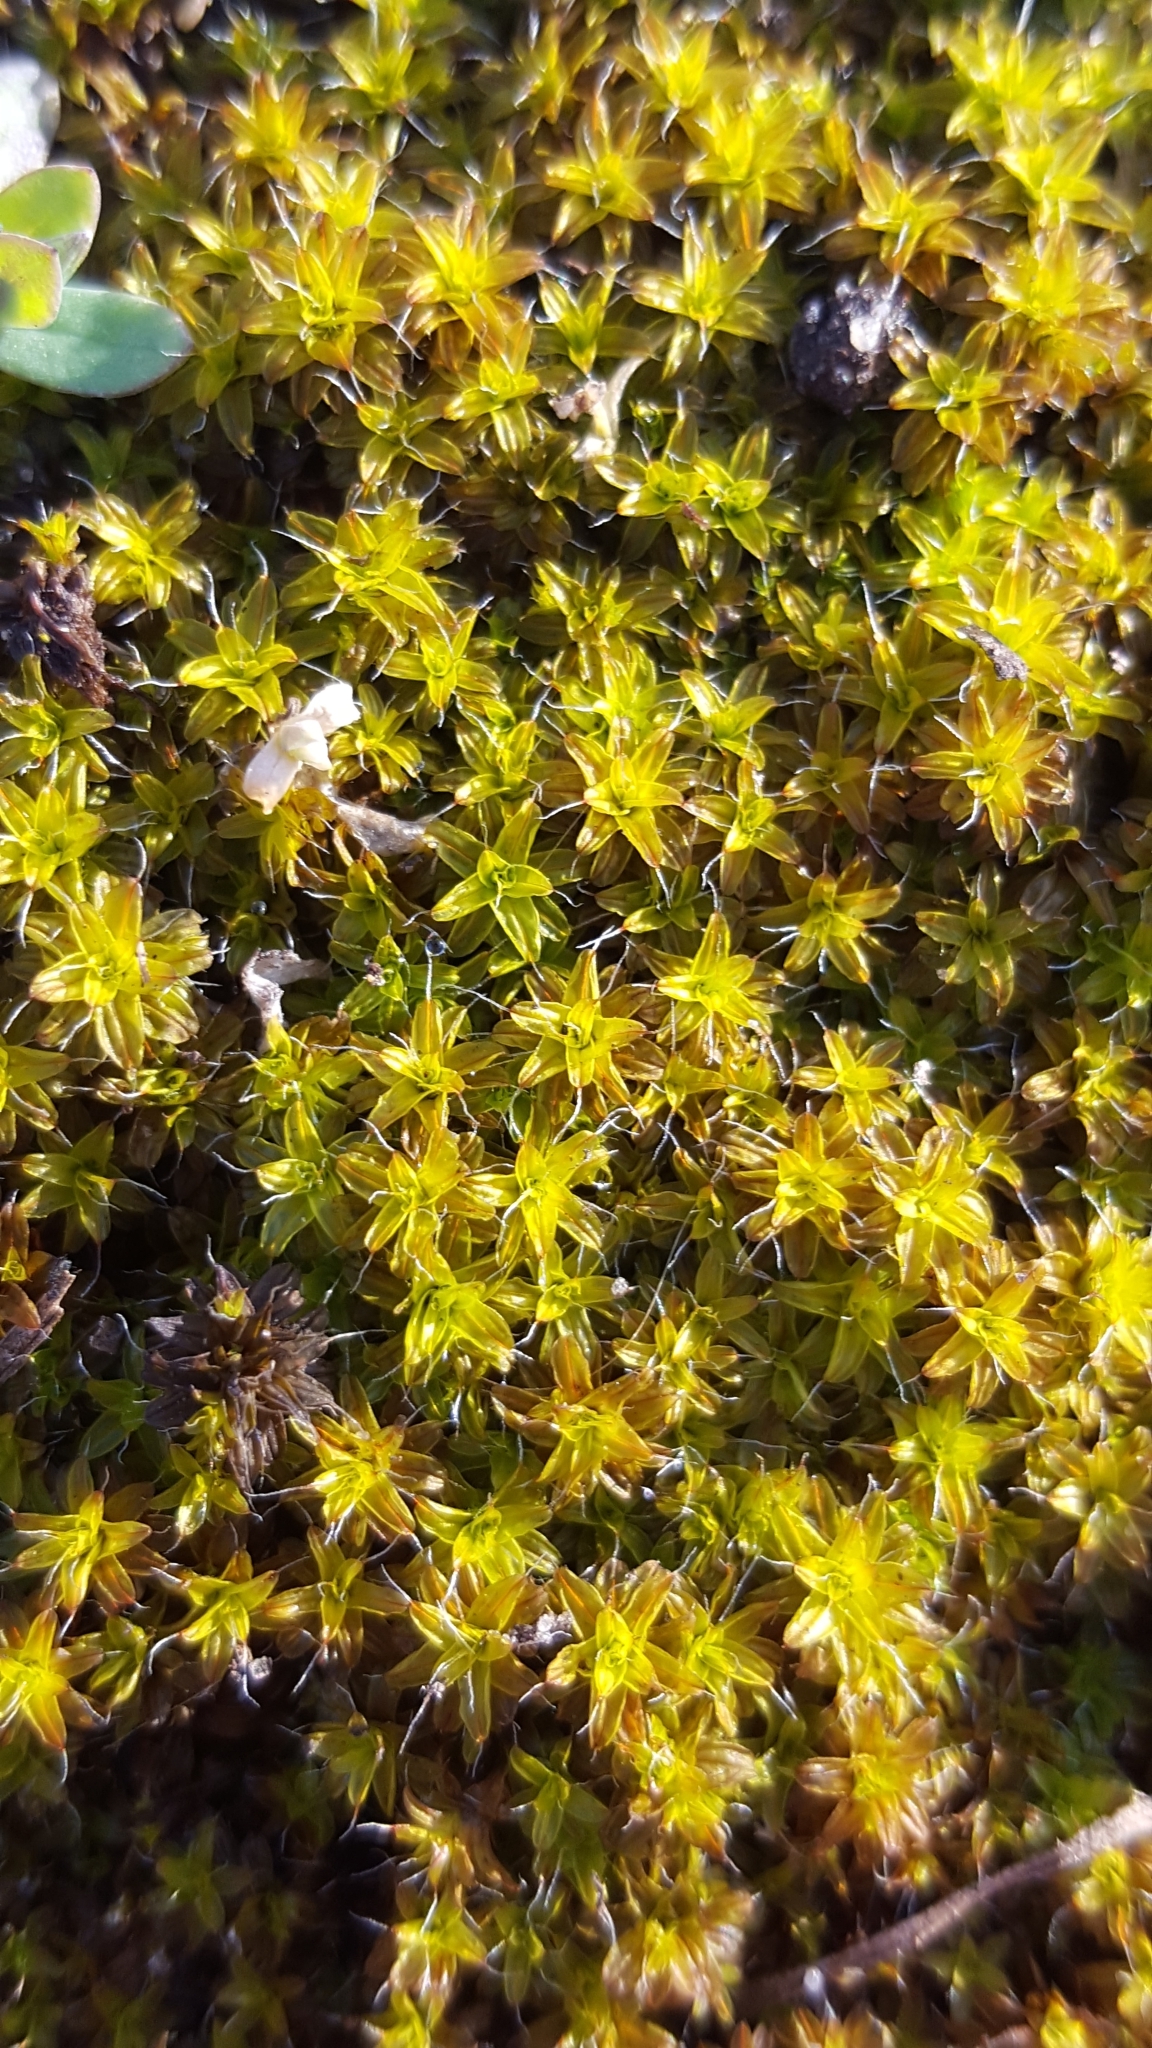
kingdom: Plantae
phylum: Bryophyta
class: Bryopsida
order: Pottiales
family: Pottiaceae
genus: Syntrichia
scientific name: Syntrichia ruralis
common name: Sidewalk screw moss
